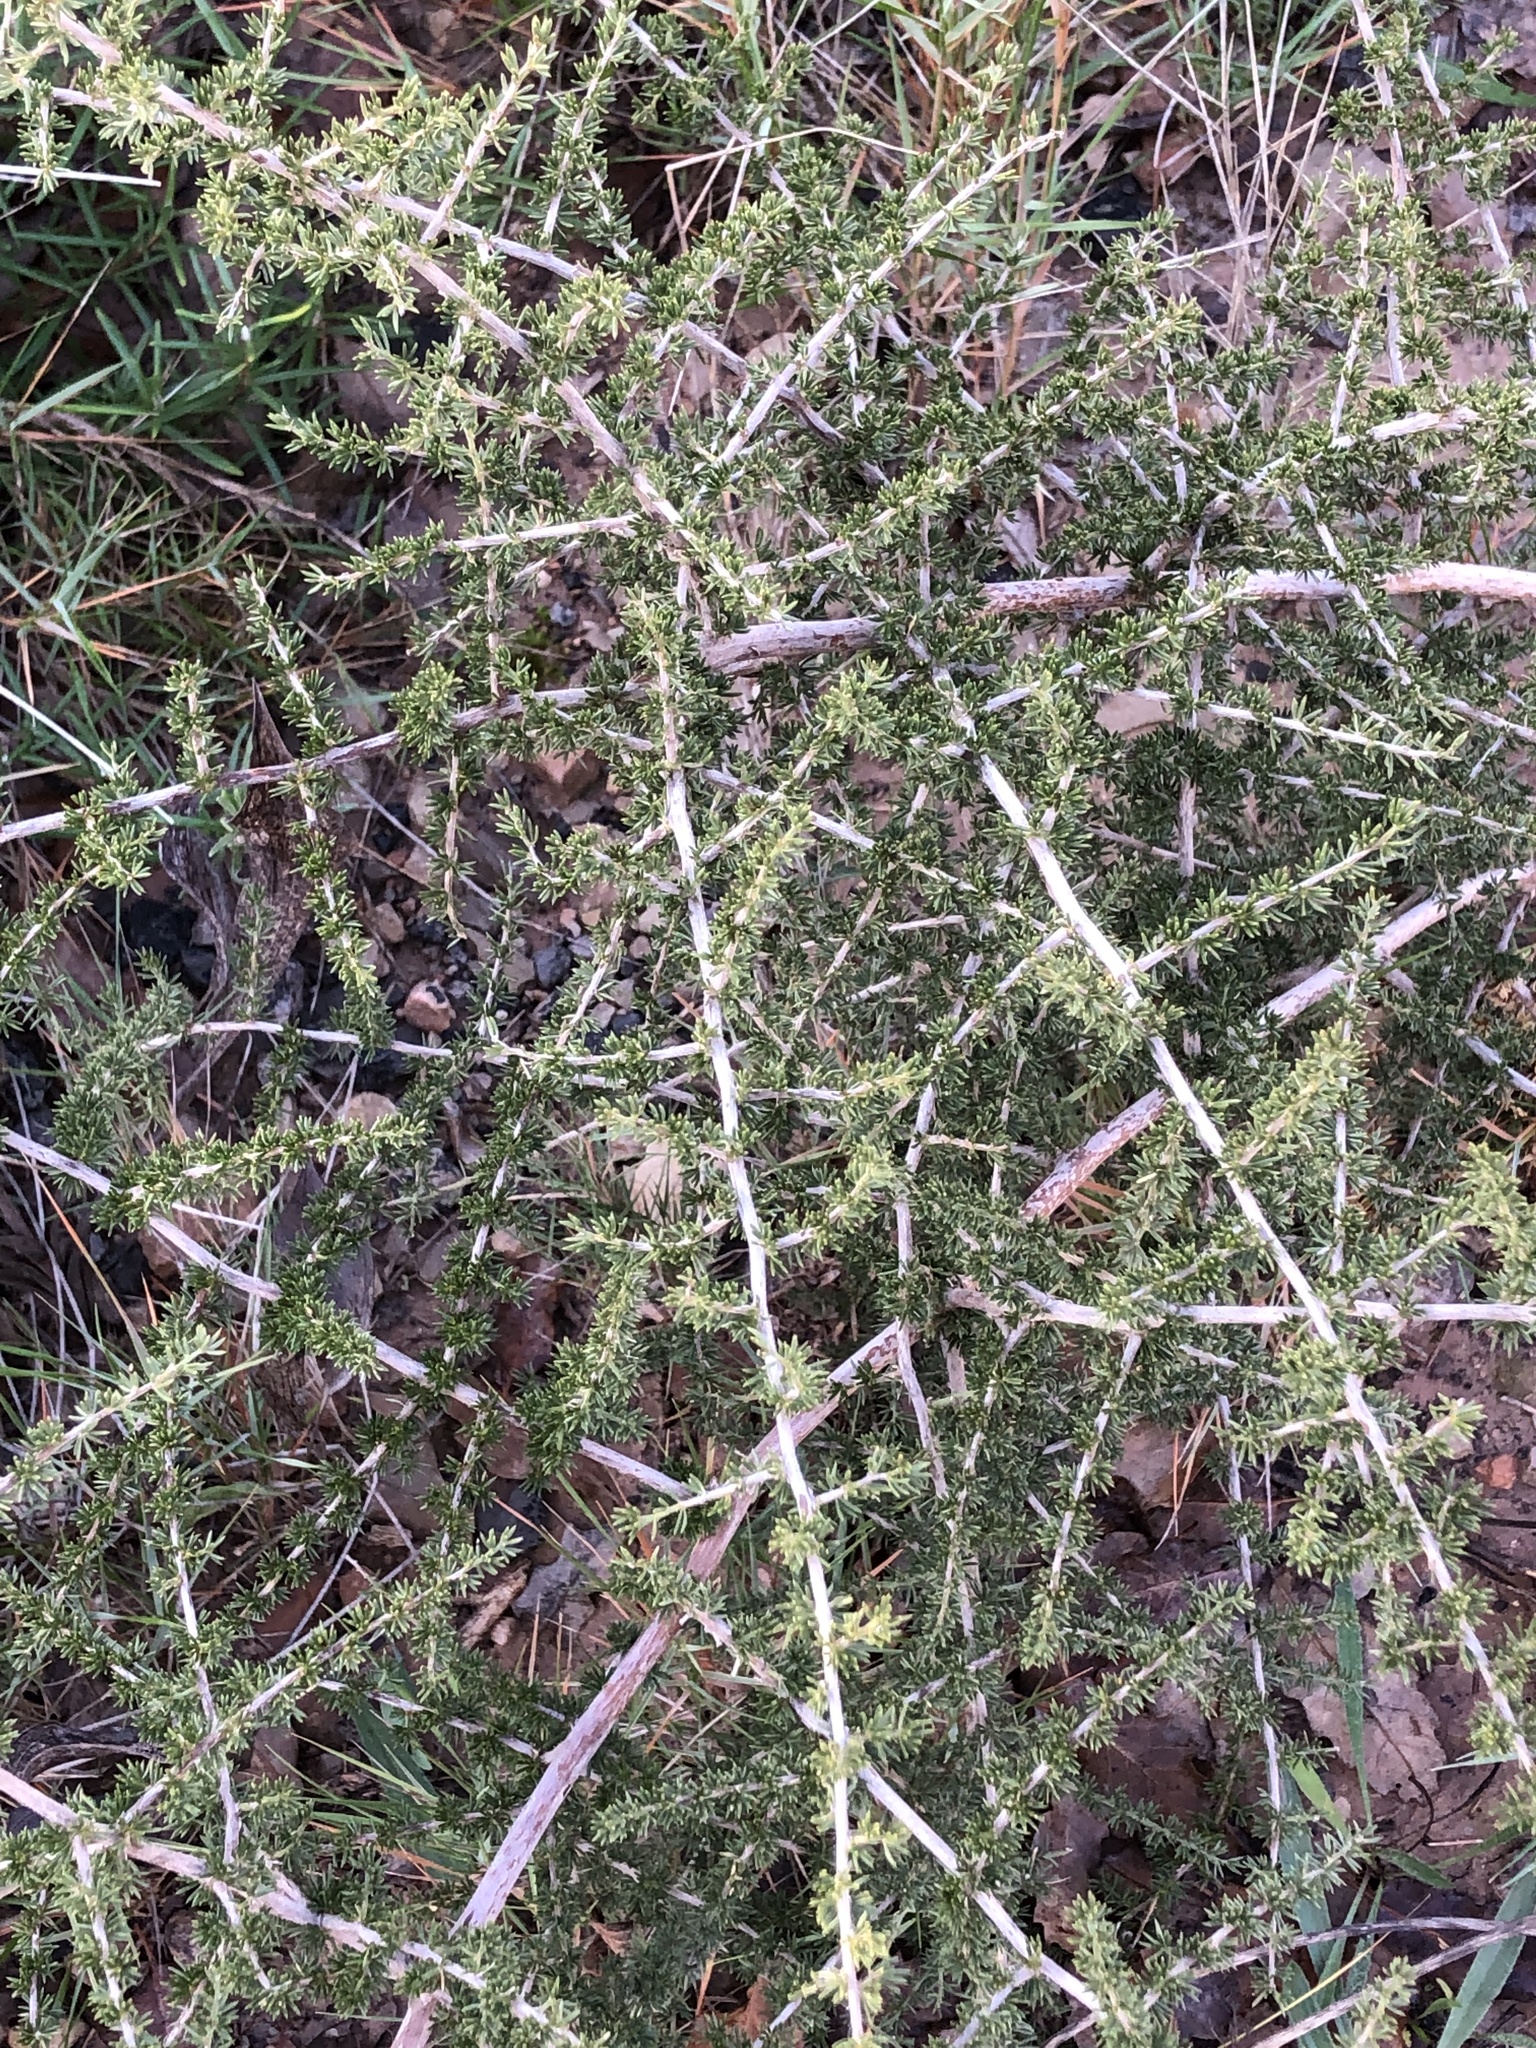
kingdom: Plantae
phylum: Tracheophyta
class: Liliopsida
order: Asparagales
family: Asparagaceae
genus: Asparagus
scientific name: Asparagus acutifolius
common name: Wild asparagus
